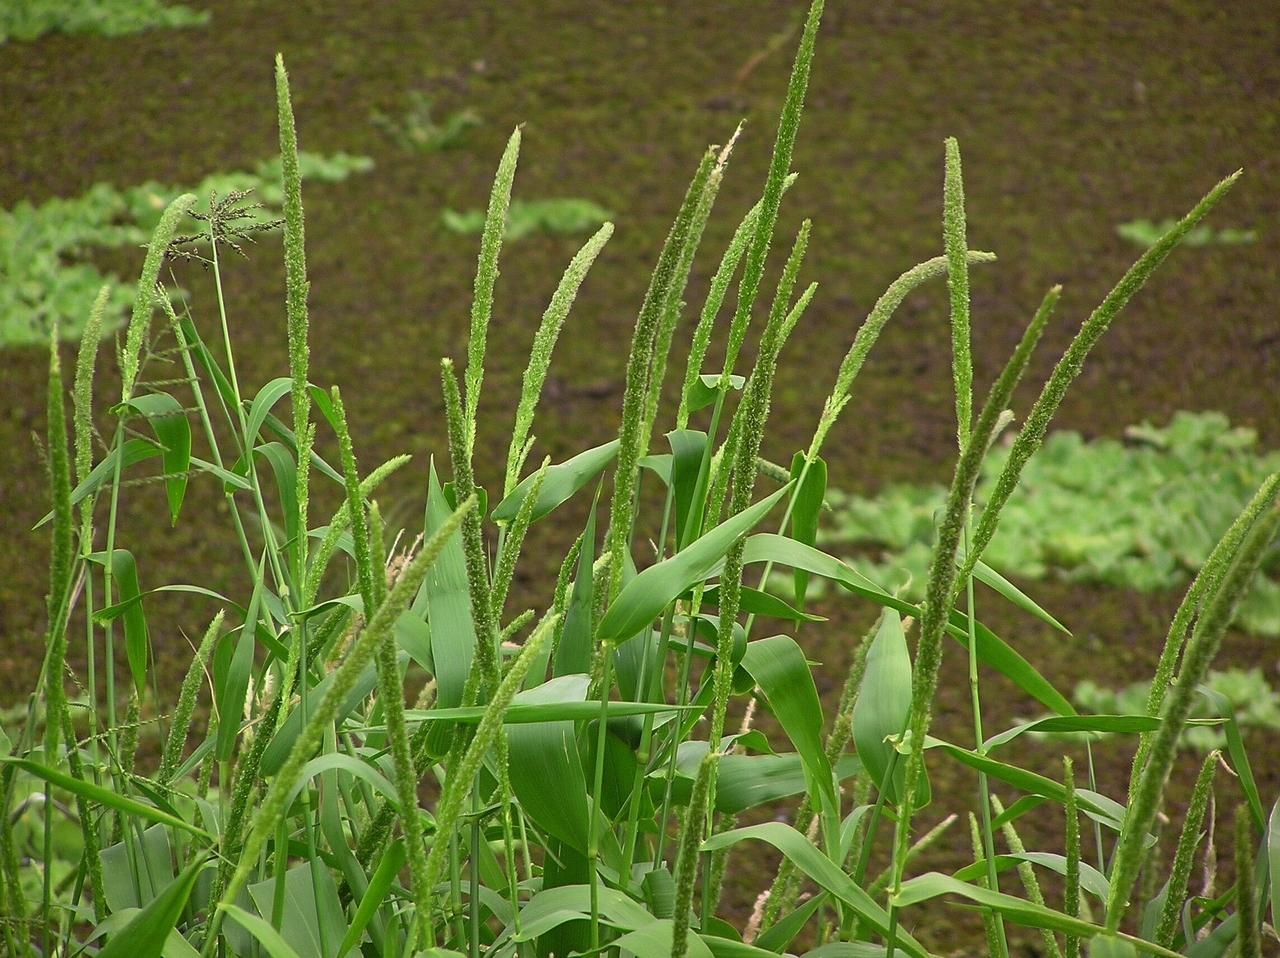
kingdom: Plantae
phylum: Tracheophyta
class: Liliopsida
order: Poales
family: Poaceae
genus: Hymenachne
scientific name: Hymenachne amplexicaulis
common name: Olive hymenachne
